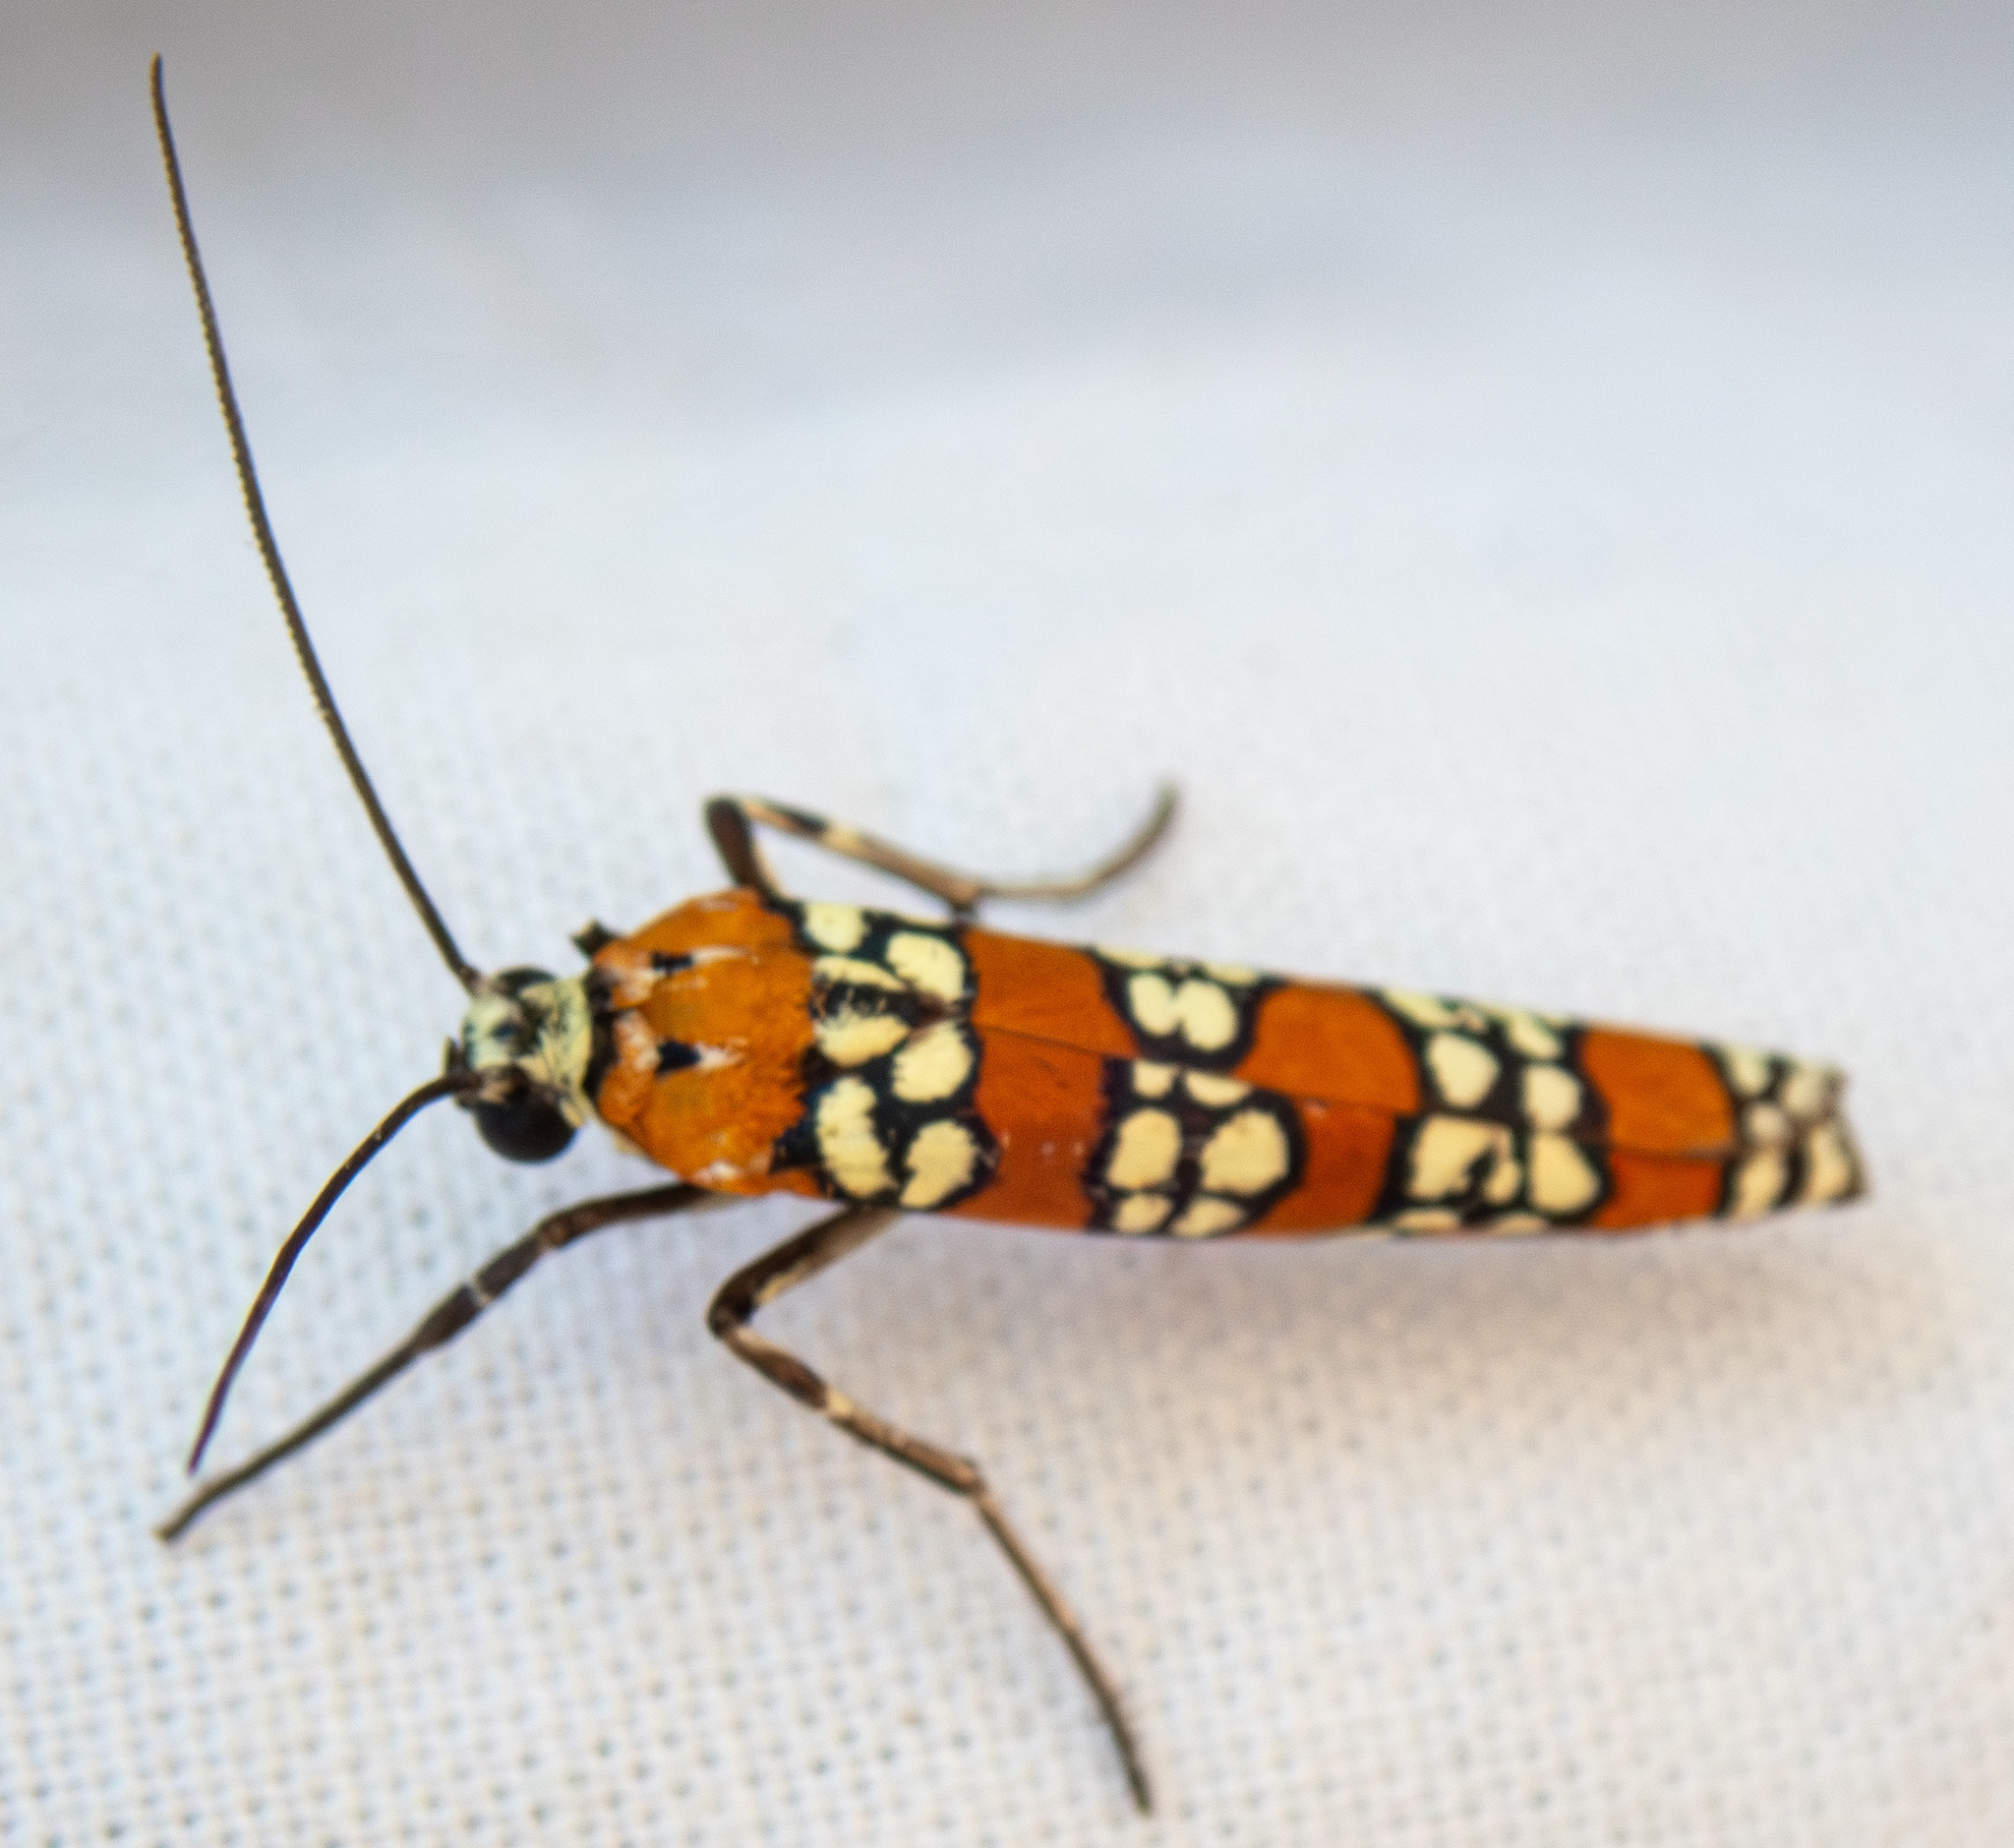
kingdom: Animalia
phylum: Arthropoda
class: Insecta
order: Lepidoptera
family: Attevidae
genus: Atteva
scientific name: Atteva punctella
